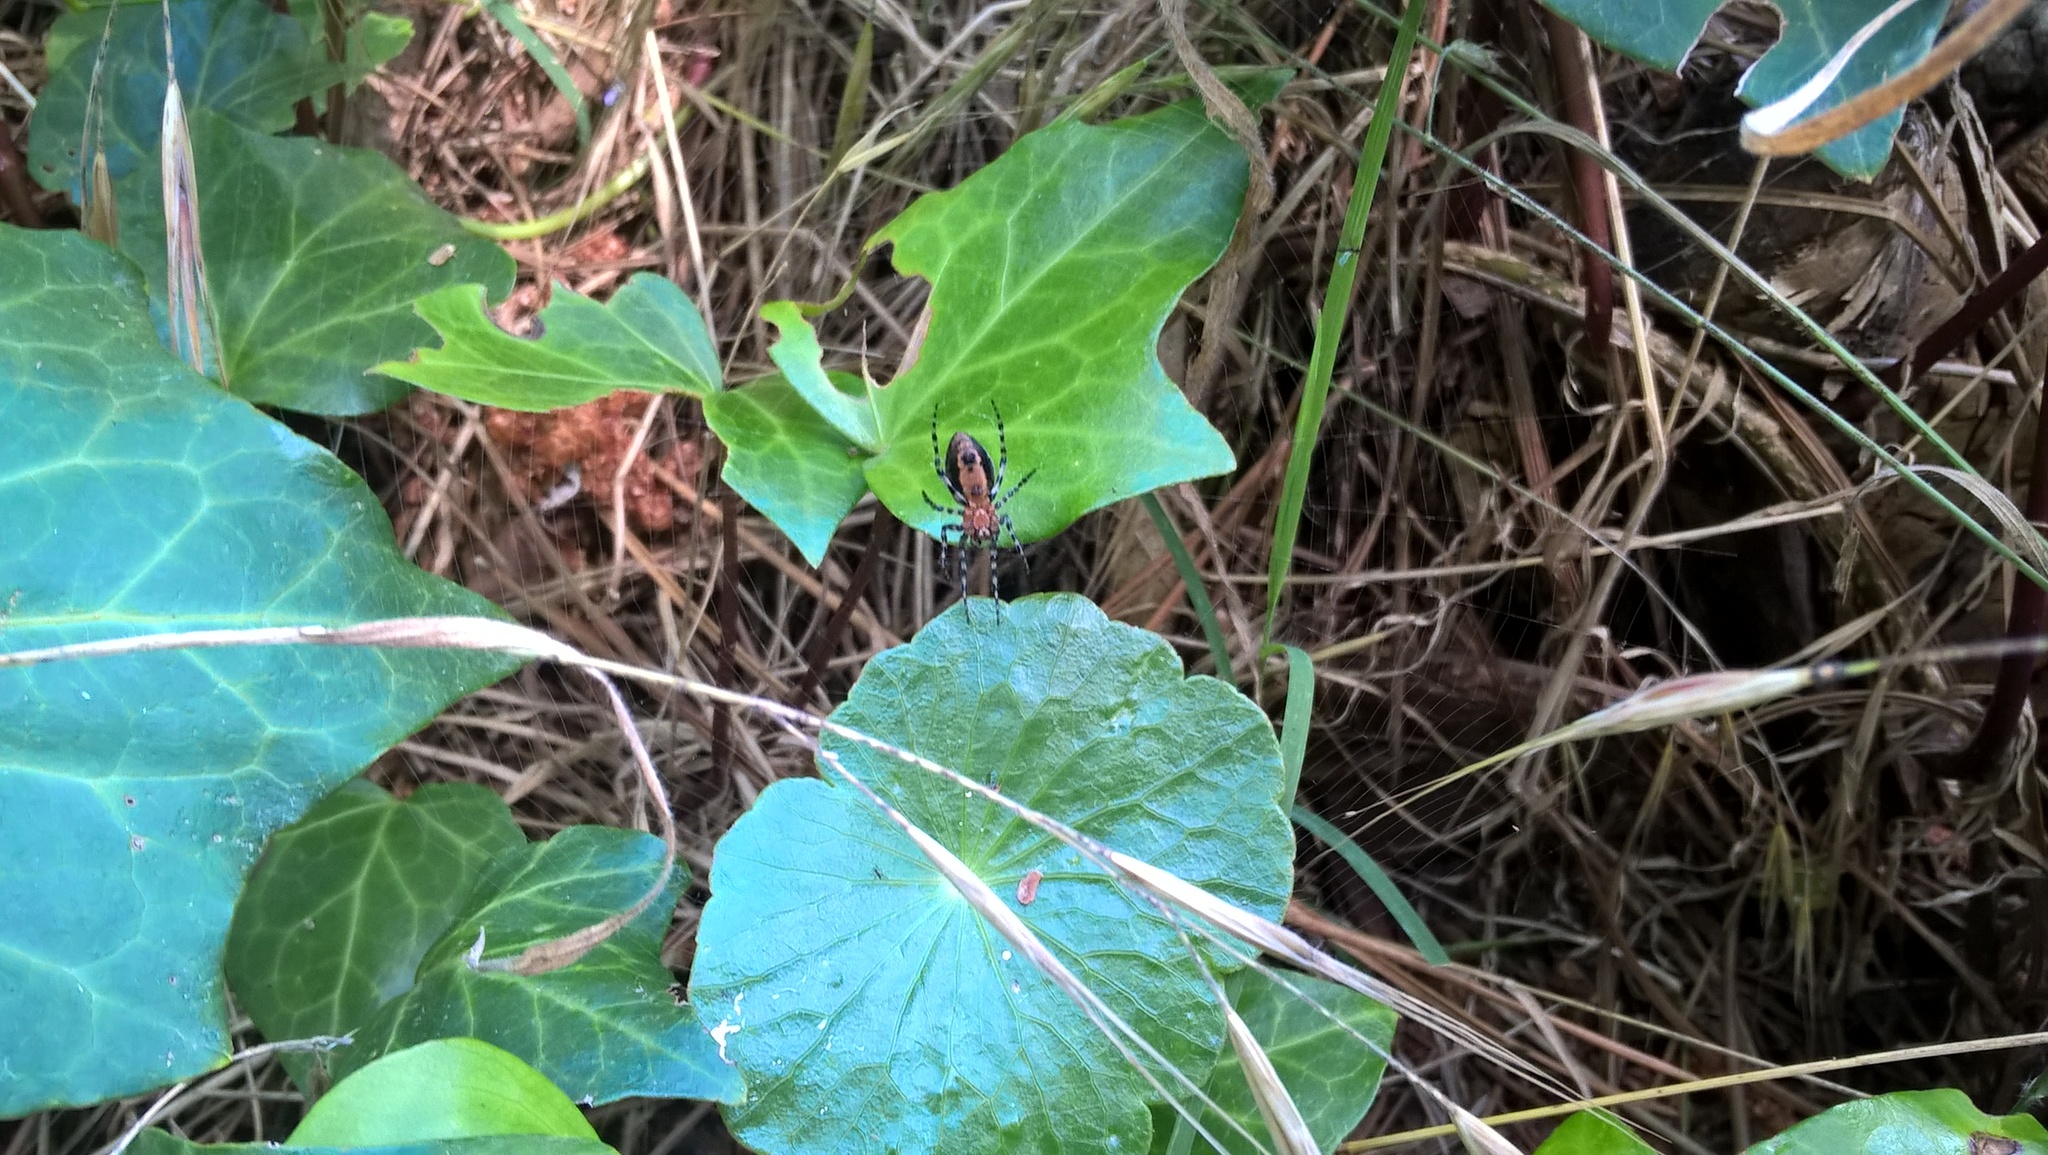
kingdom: Animalia
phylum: Arthropoda
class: Arachnida
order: Araneae
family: Araneidae
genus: Alpaida
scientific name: Alpaida gallardoi
